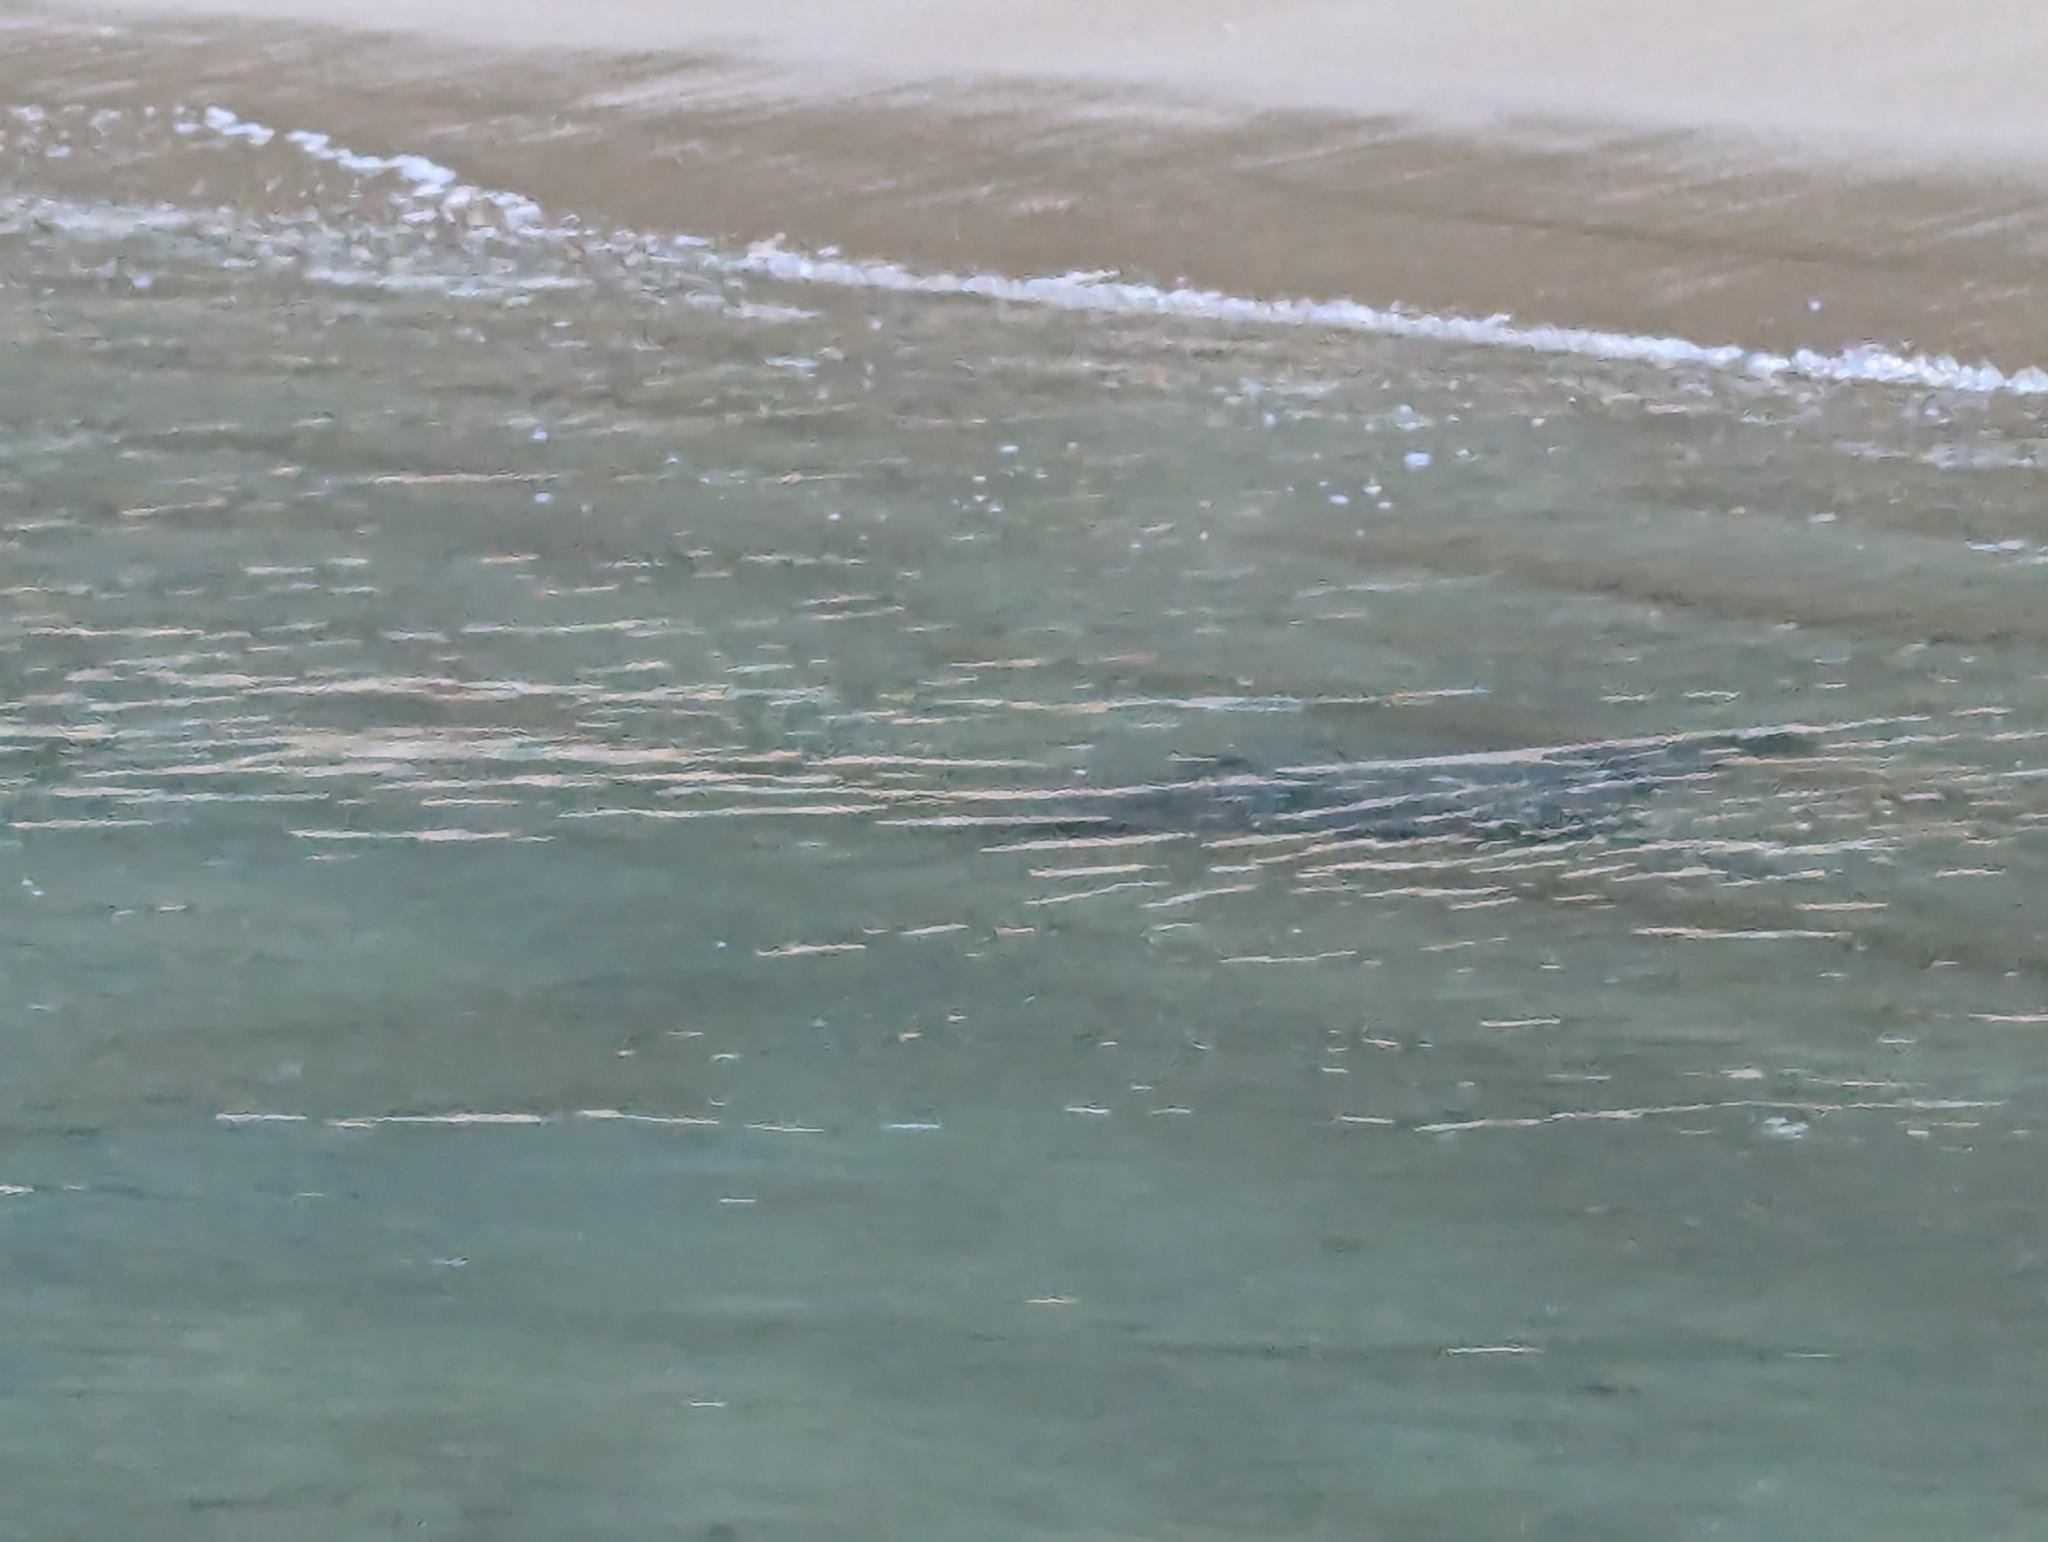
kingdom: Animalia
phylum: Chordata
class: Elasmobranchii
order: Myliobatiformes
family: Myliobatidae
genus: Myliobatis
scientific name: Myliobatis tenuicaudatus
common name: Eagle ray
